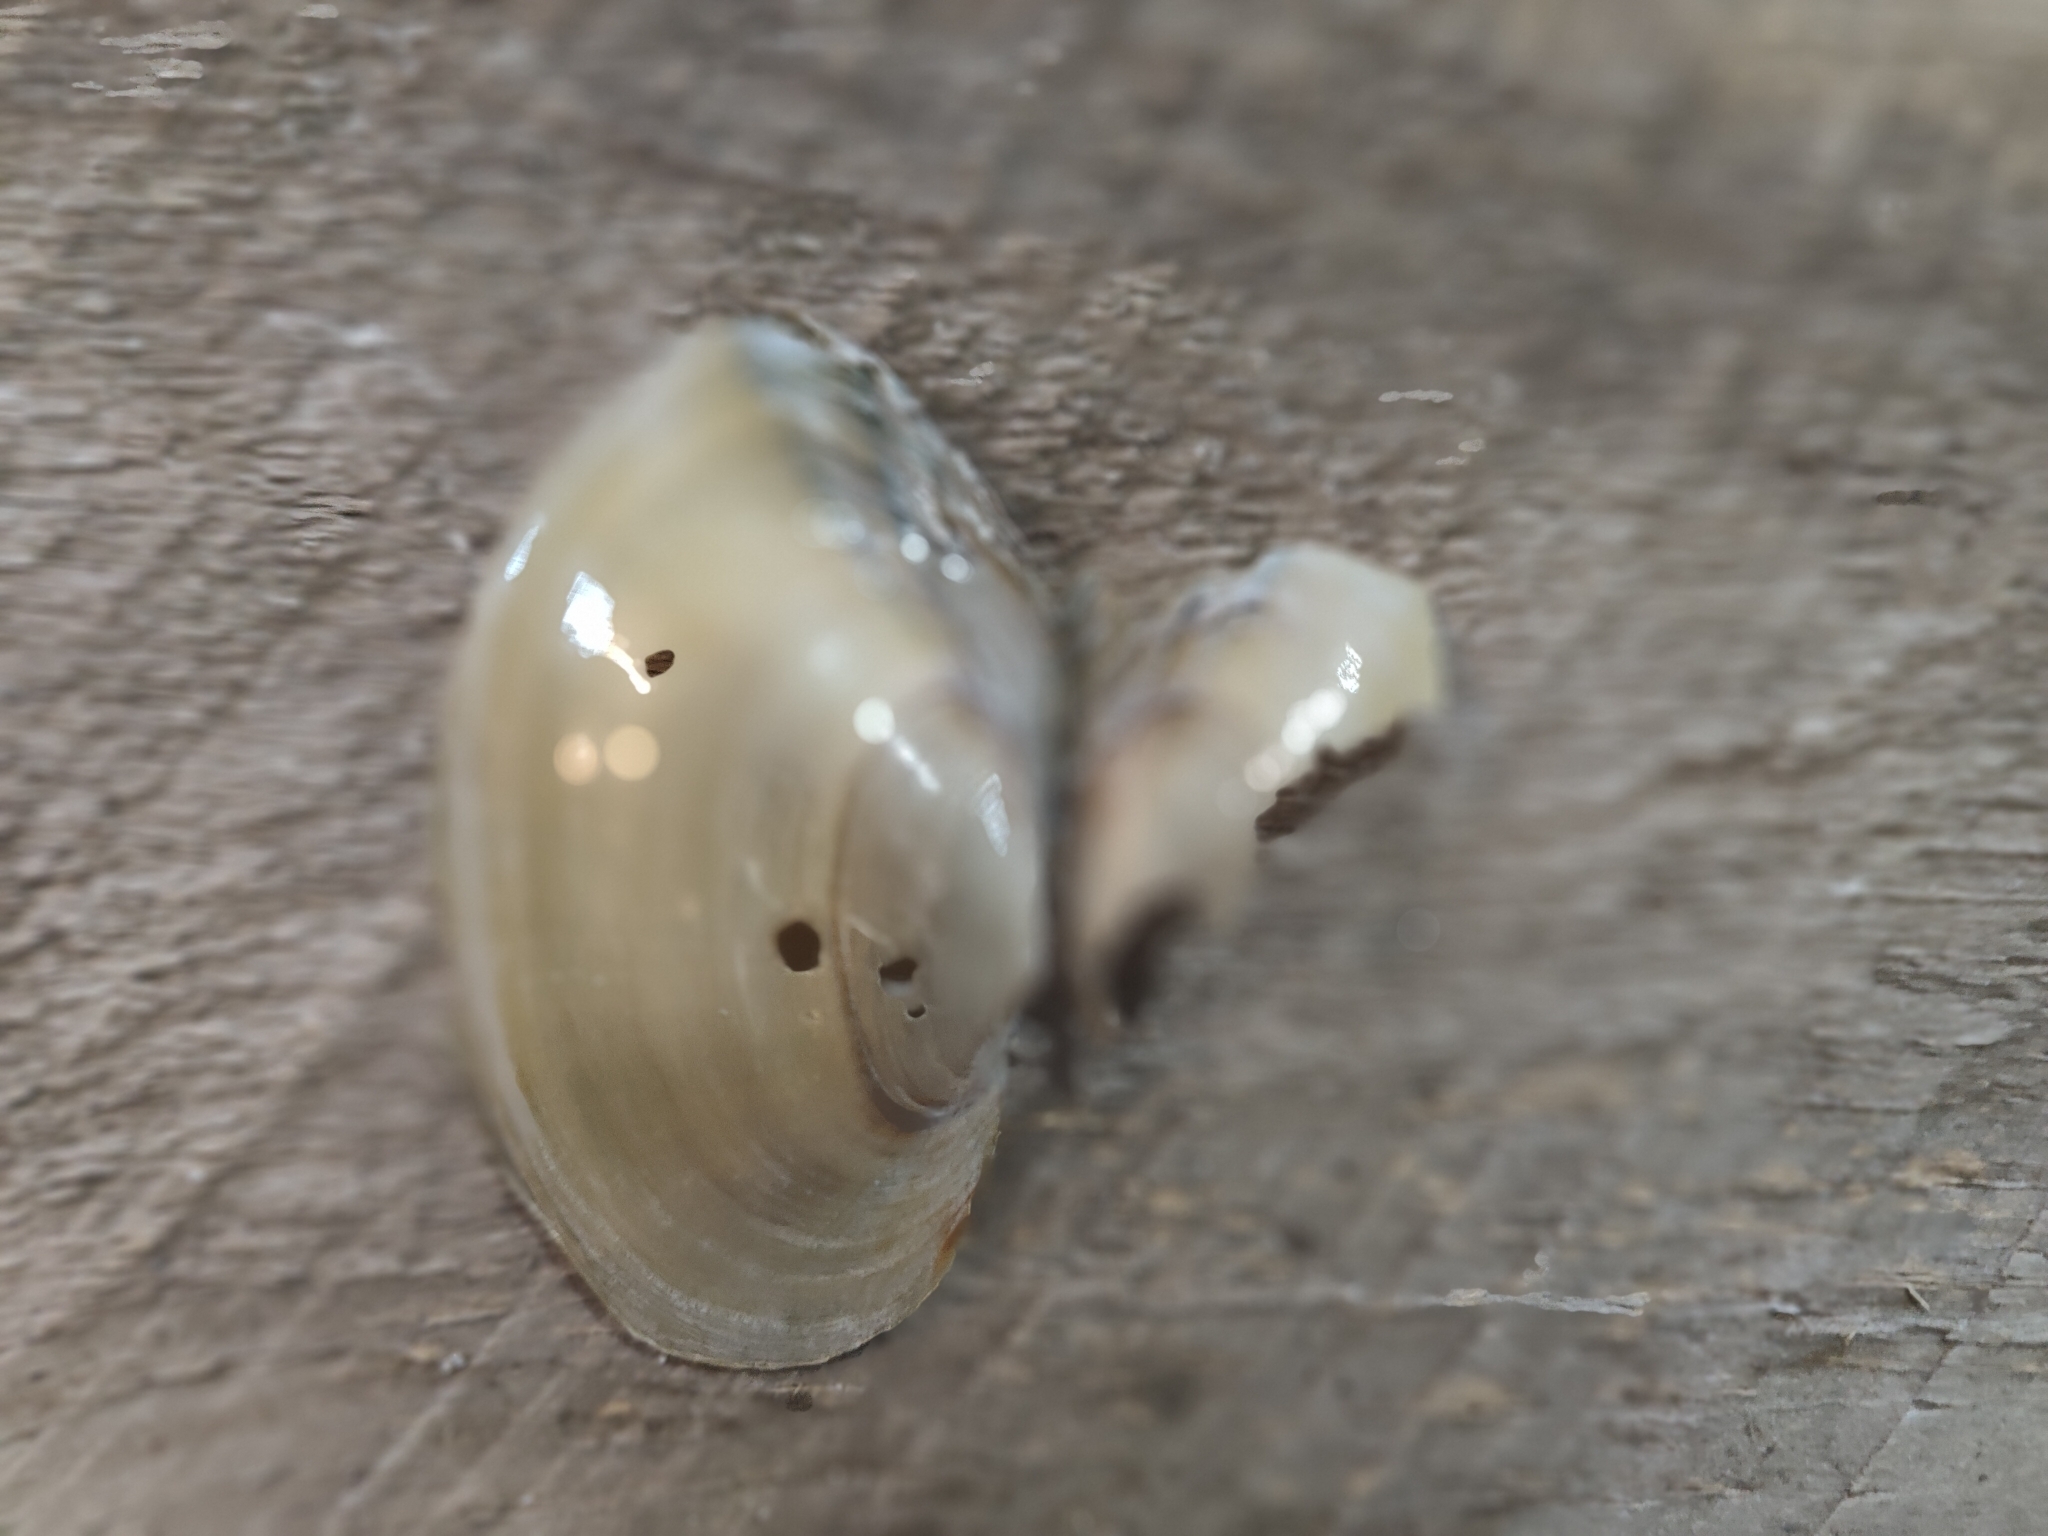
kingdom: Animalia
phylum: Mollusca
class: Bivalvia
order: Unionida
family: Unionidae
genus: Pyganodon
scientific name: Pyganodon grandis
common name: Giant floater
